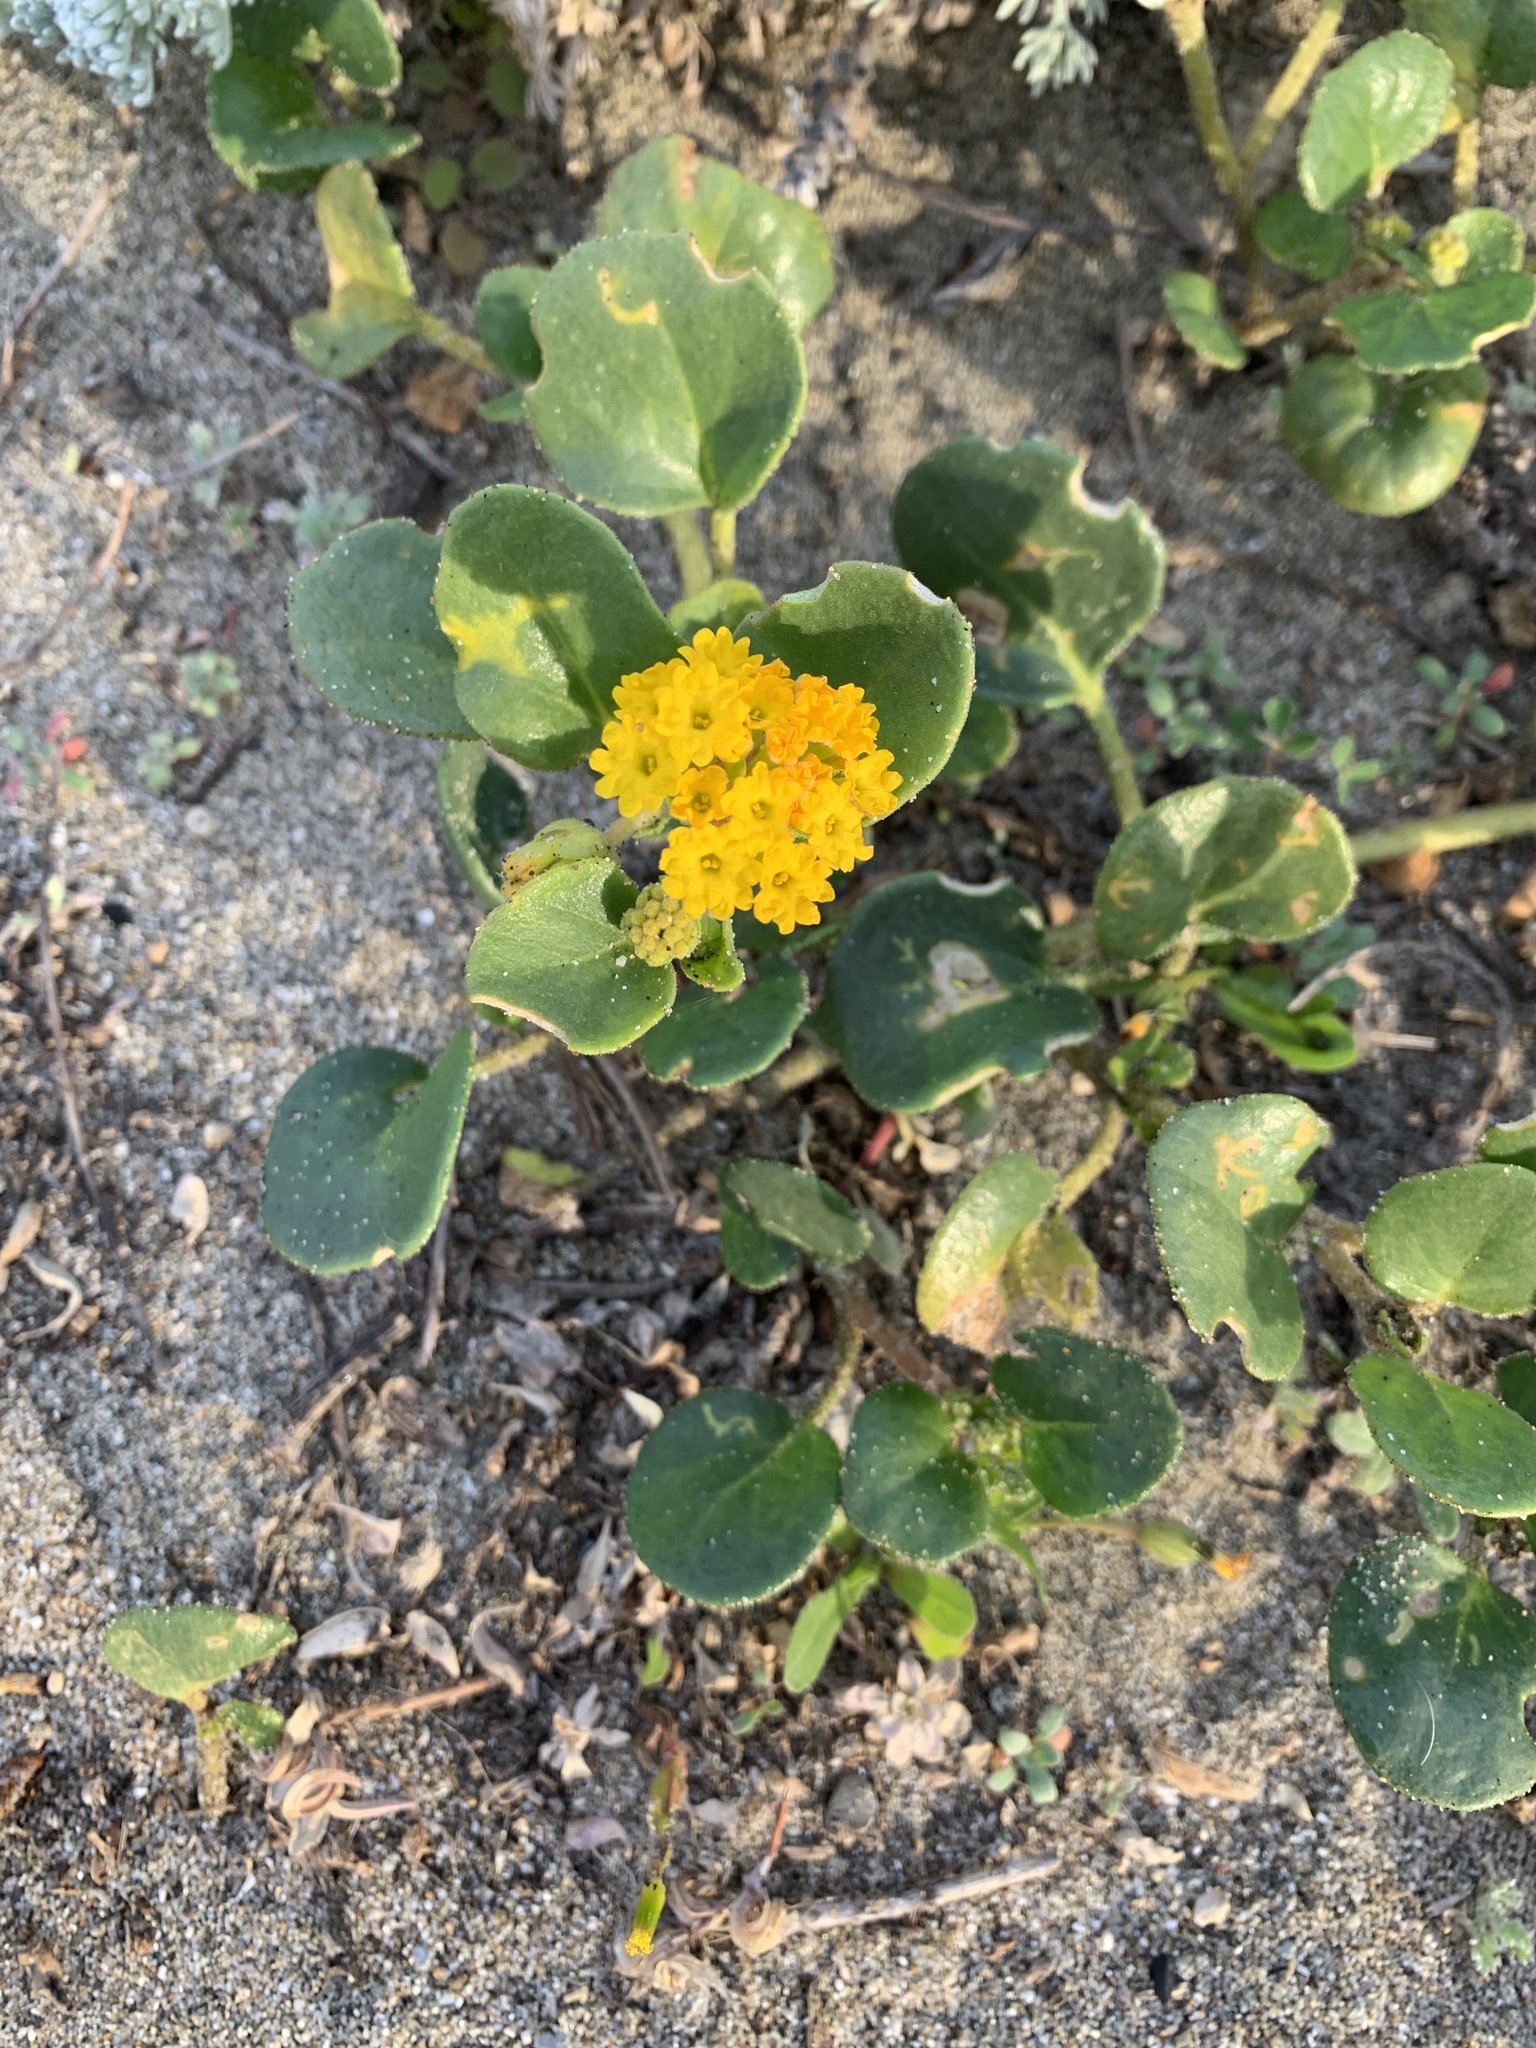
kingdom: Plantae
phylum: Tracheophyta
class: Magnoliopsida
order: Caryophyllales
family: Nyctaginaceae
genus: Abronia
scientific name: Abronia latifolia
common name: Yellow sand-verbena
